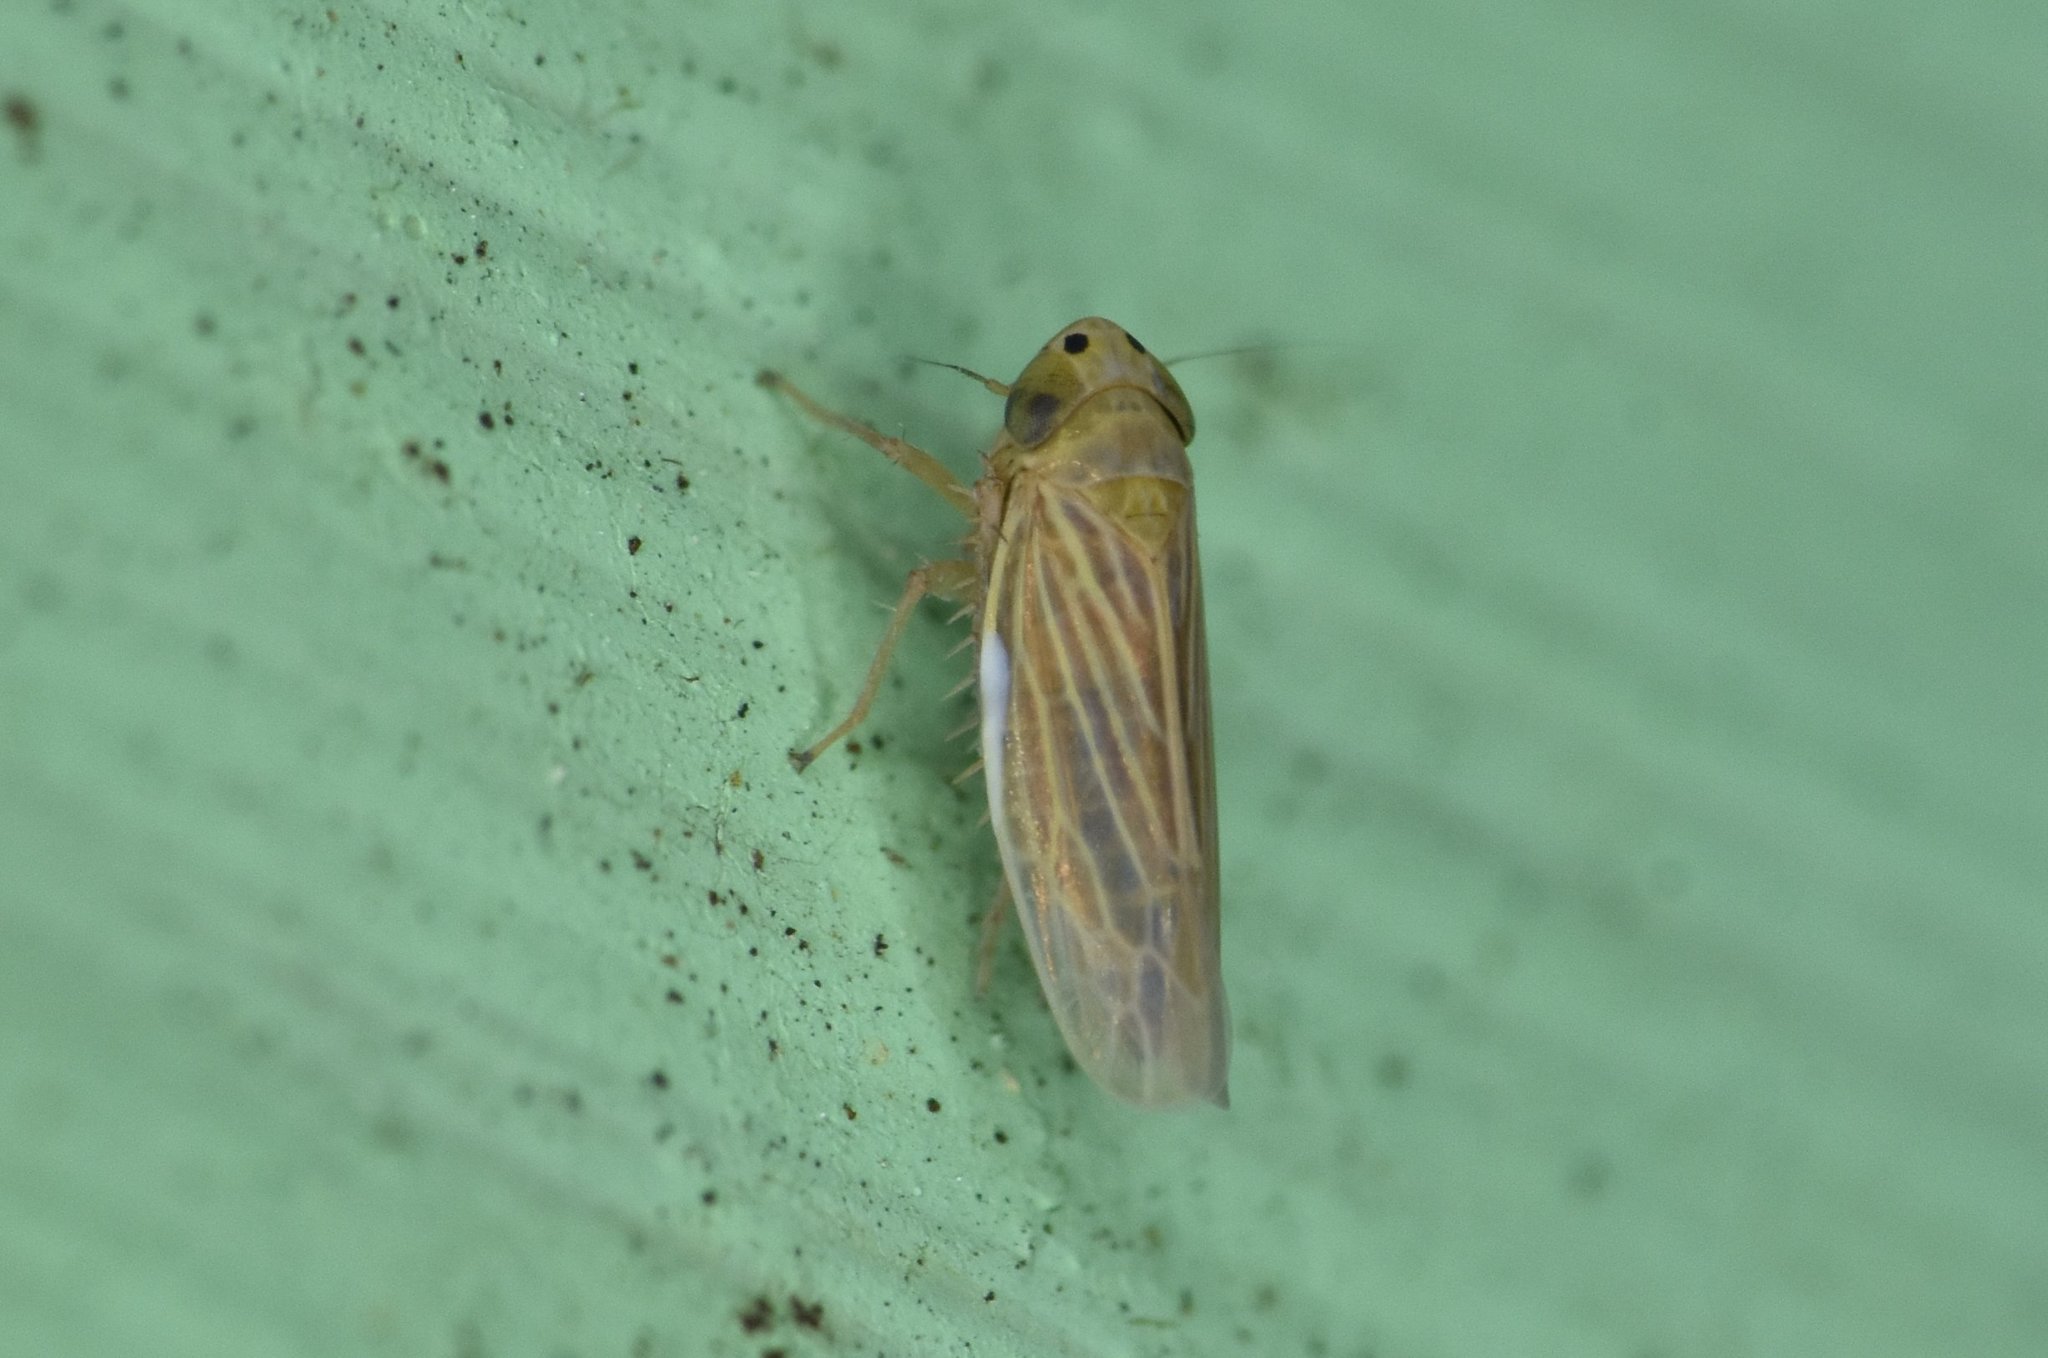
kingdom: Animalia
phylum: Arthropoda
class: Insecta
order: Hemiptera
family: Cicadellidae
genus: Graminella
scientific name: Graminella cognita
